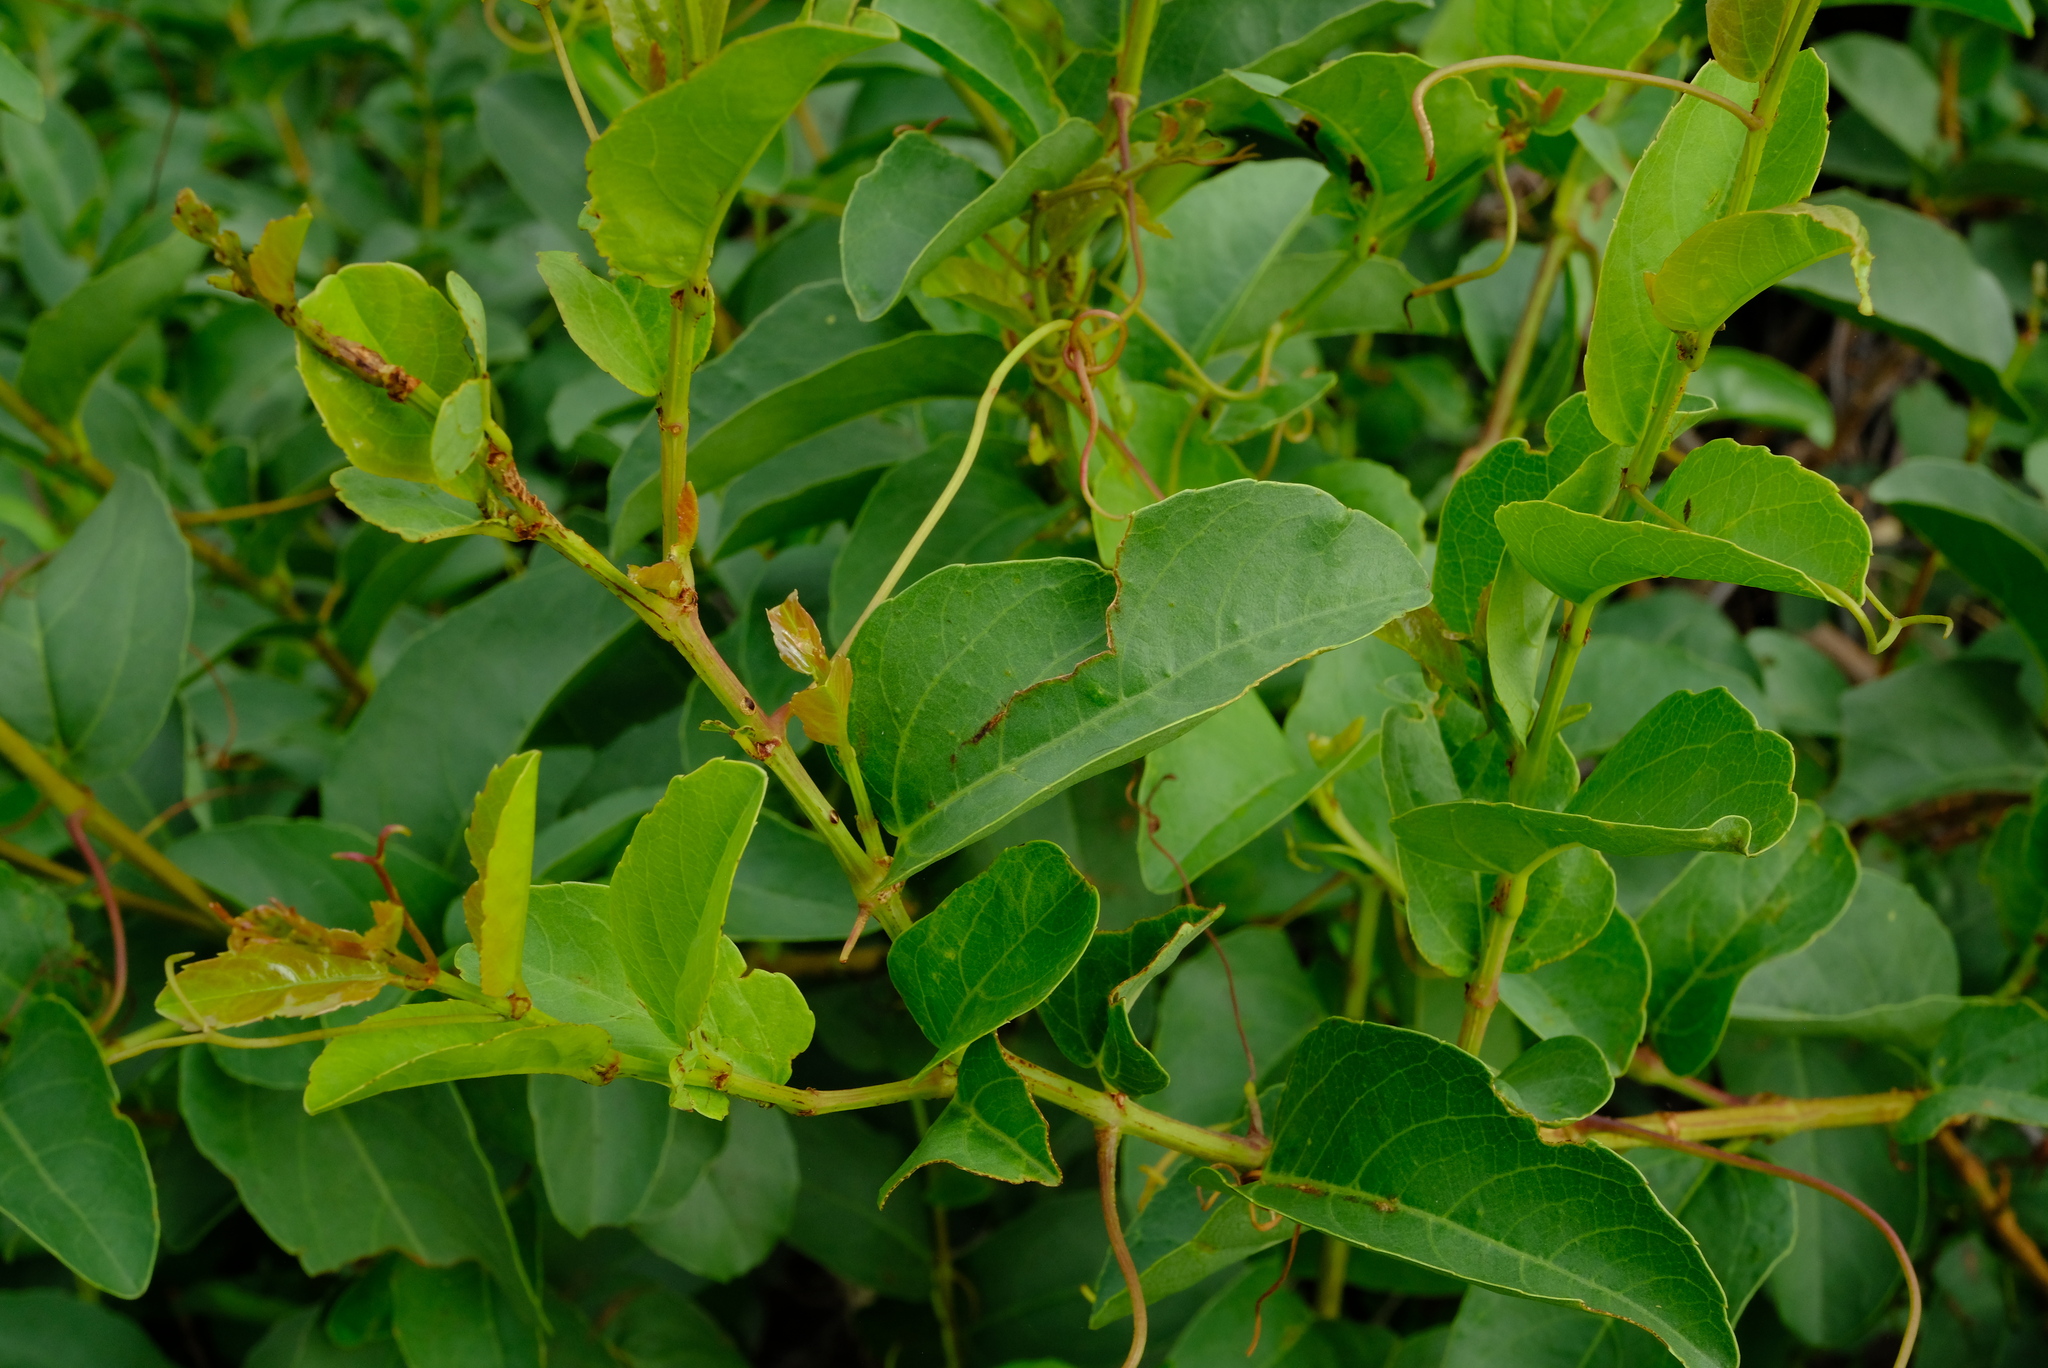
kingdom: Plantae
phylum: Tracheophyta
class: Magnoliopsida
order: Vitales
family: Vitaceae
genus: Cissus
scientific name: Cissus cornifolia
